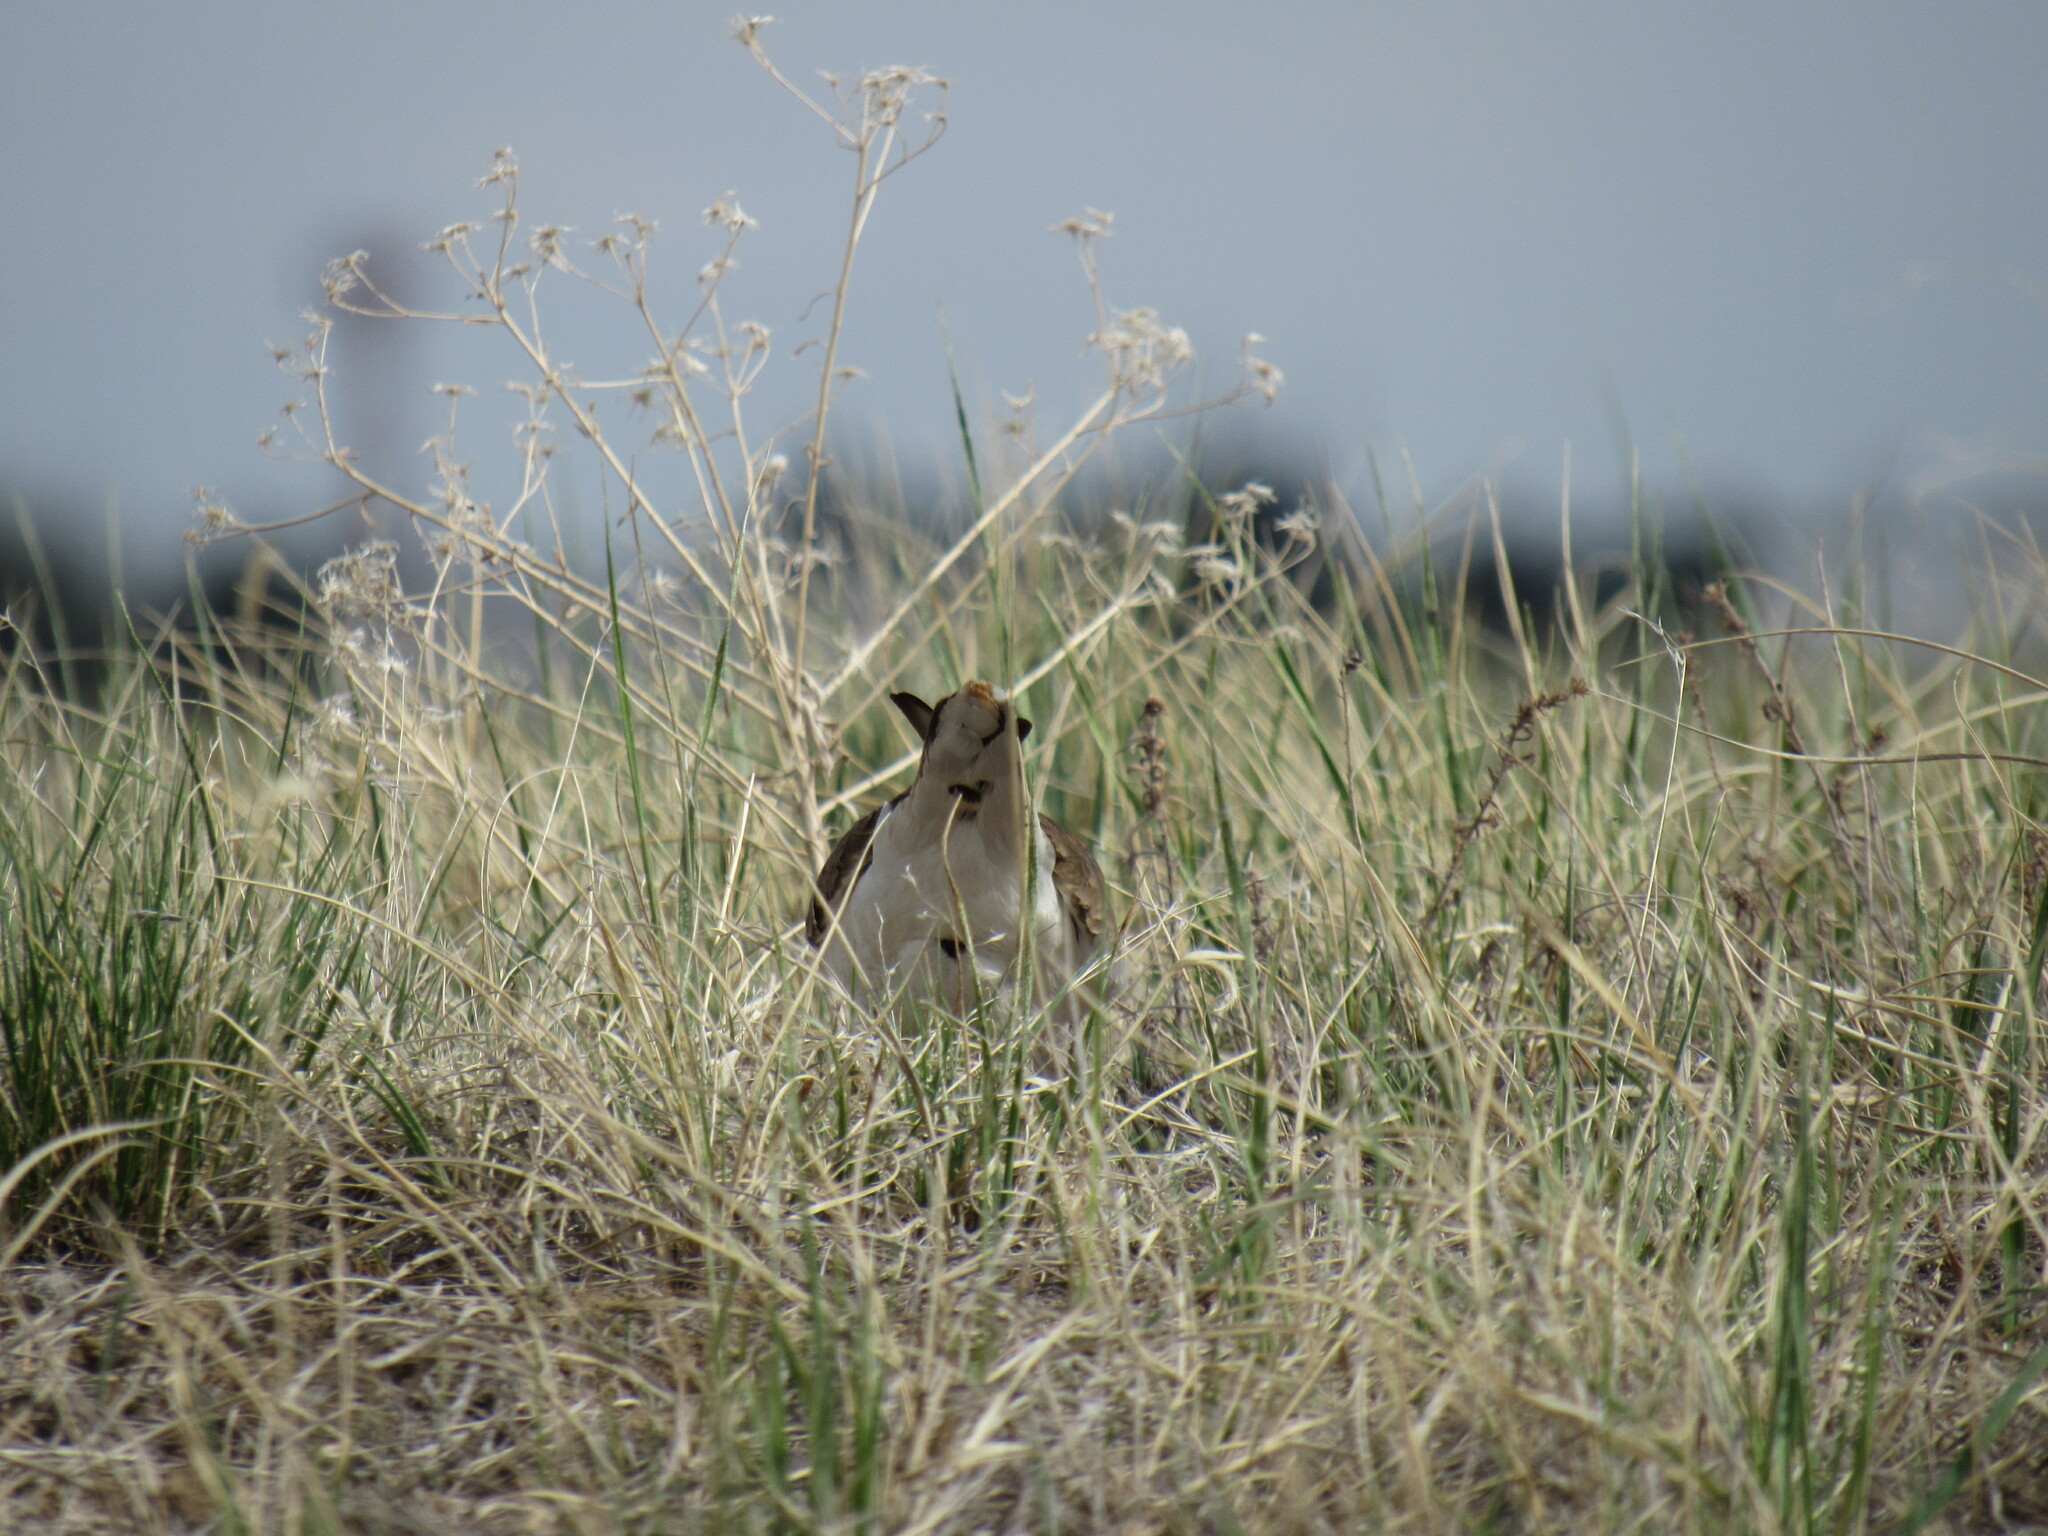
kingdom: Animalia
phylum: Chordata
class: Aves
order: Charadriiformes
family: Charadriidae
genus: Charadrius
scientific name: Charadrius vociferus
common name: Killdeer
